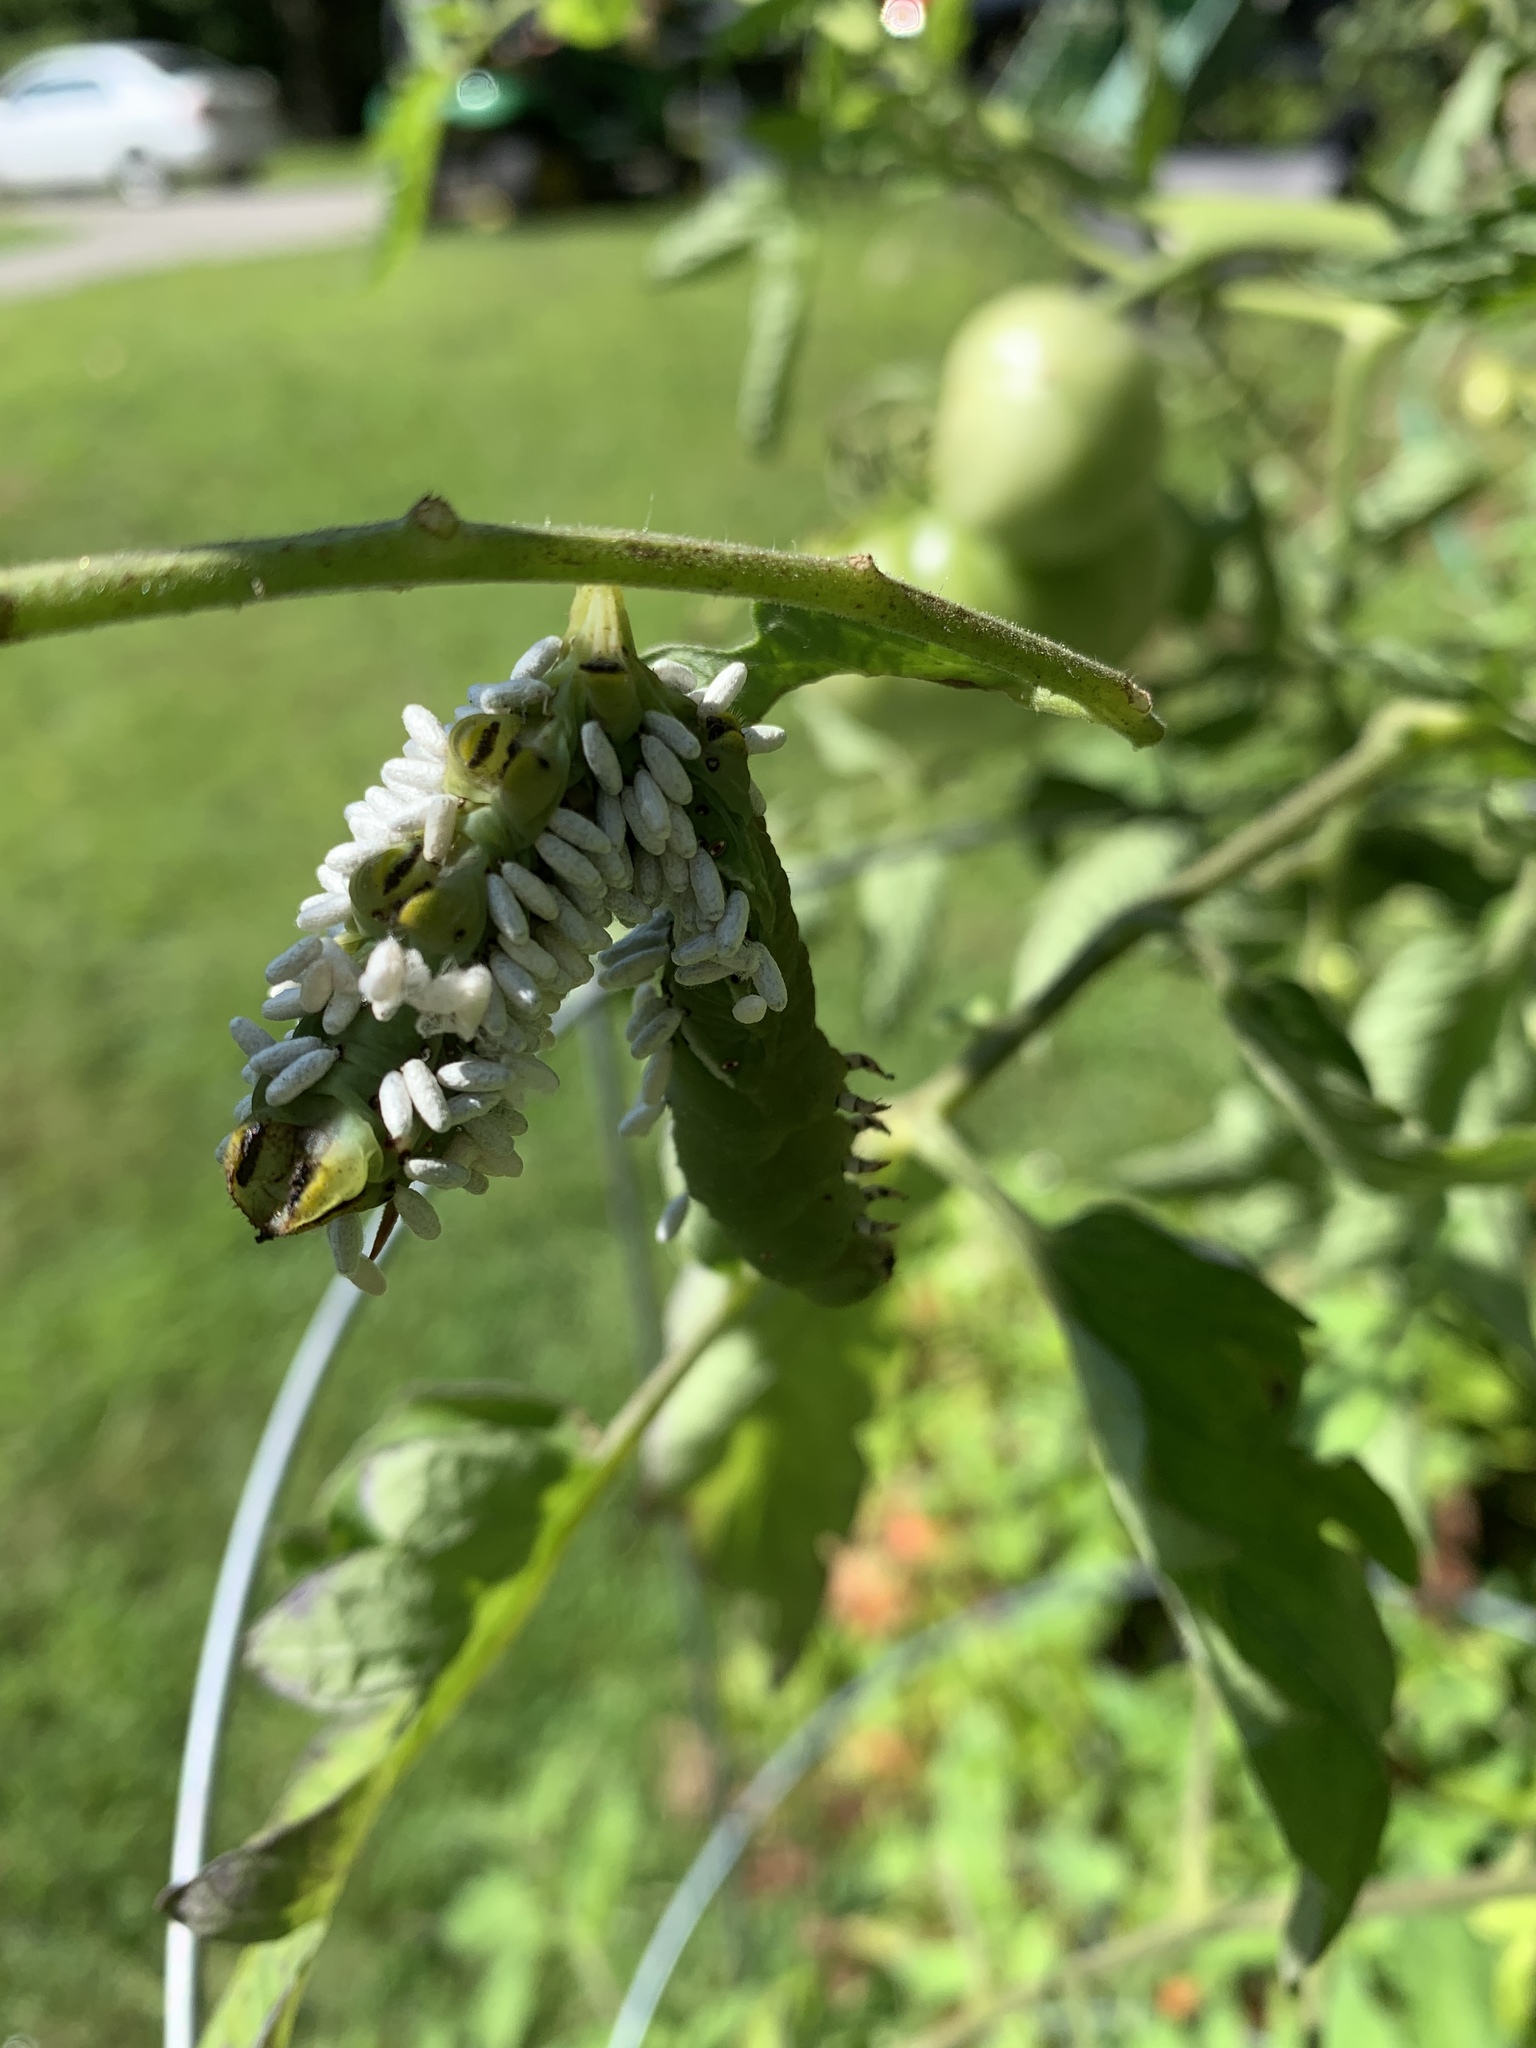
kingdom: Animalia
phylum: Arthropoda
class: Insecta
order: Hymenoptera
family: Braconidae
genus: Cotesia
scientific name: Cotesia congregata
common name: Hornworm parasitoid wasp
